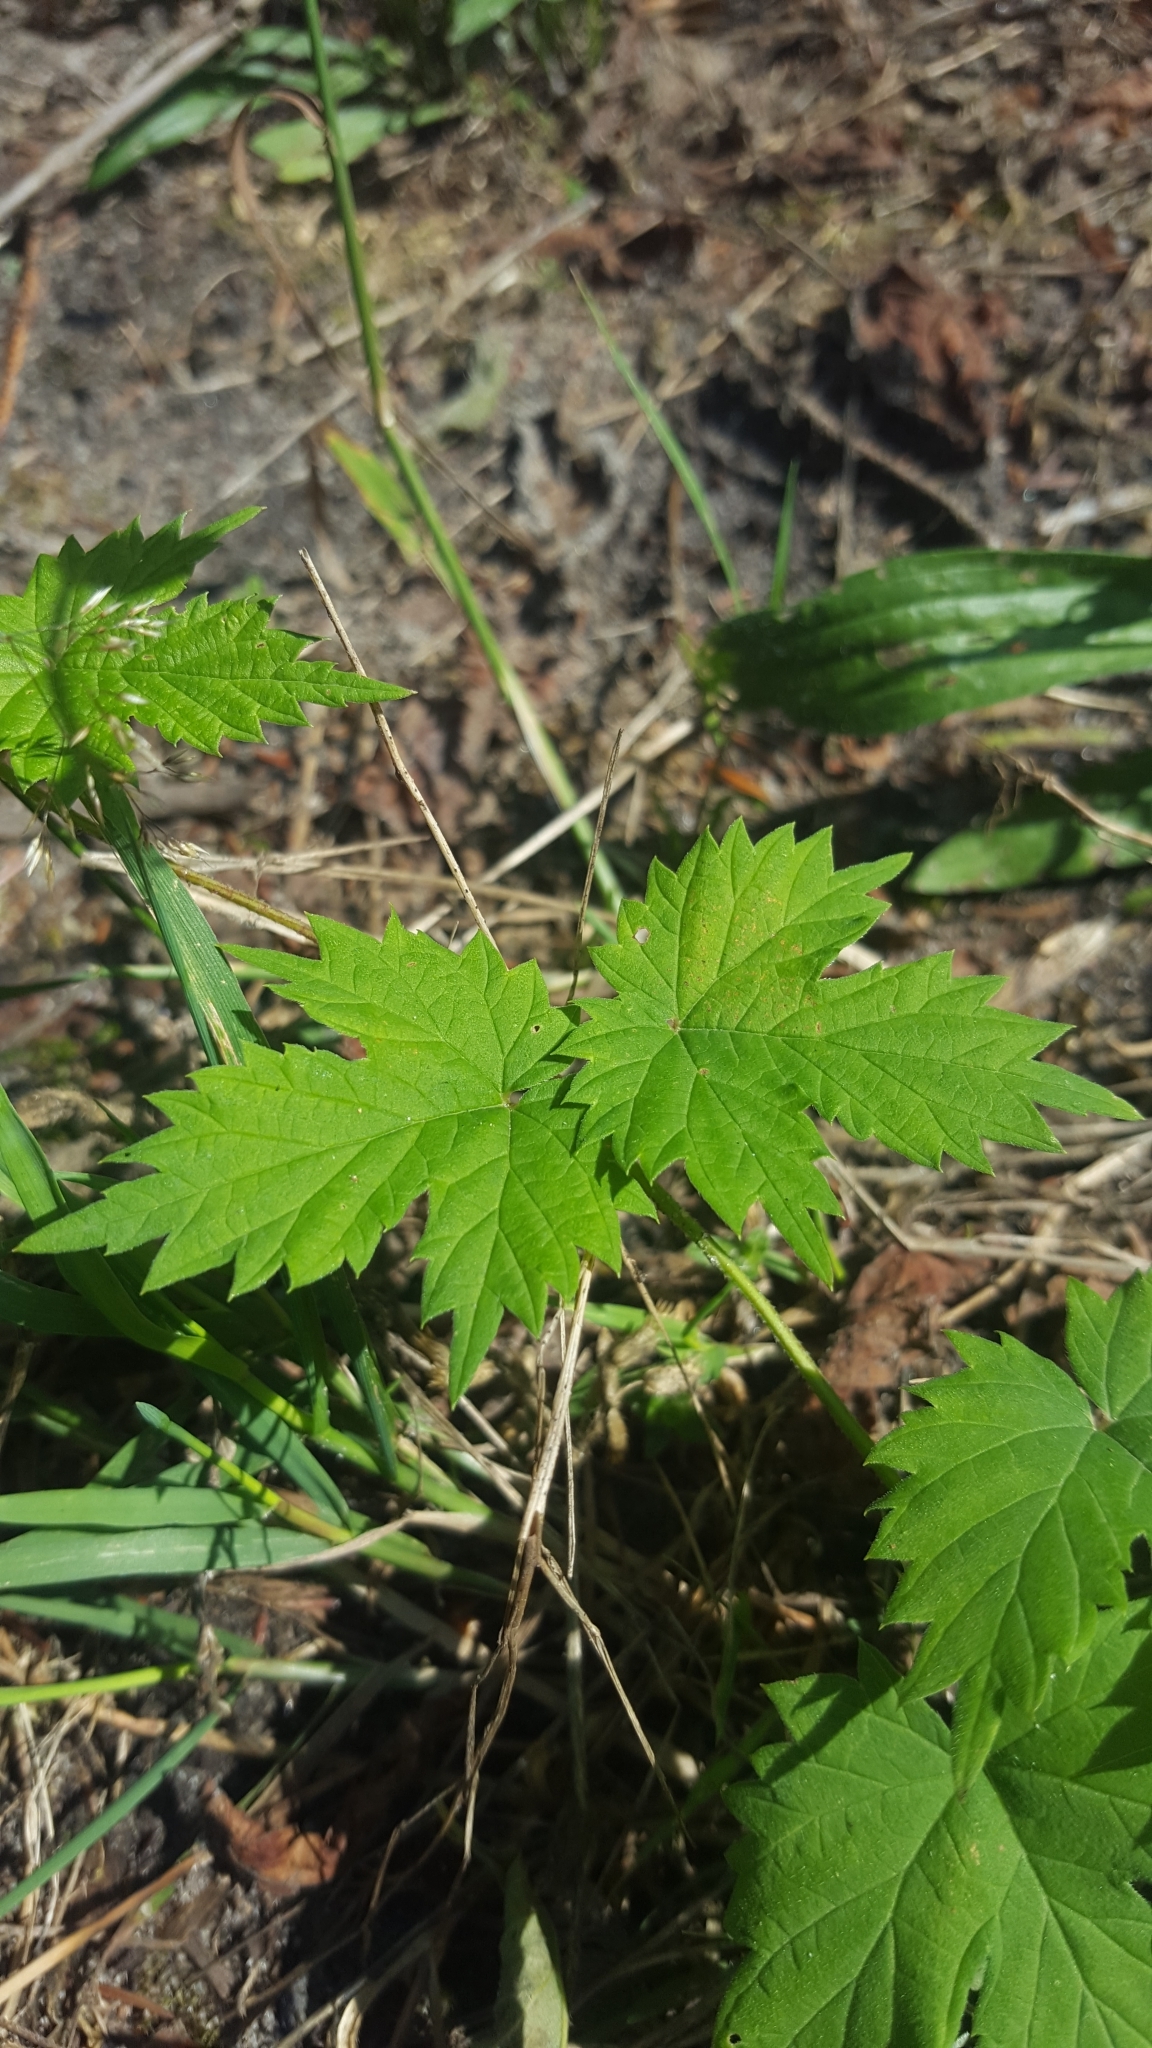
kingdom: Plantae
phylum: Tracheophyta
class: Magnoliopsida
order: Rosales
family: Cannabaceae
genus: Humulus
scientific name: Humulus lupulus
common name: Hop
